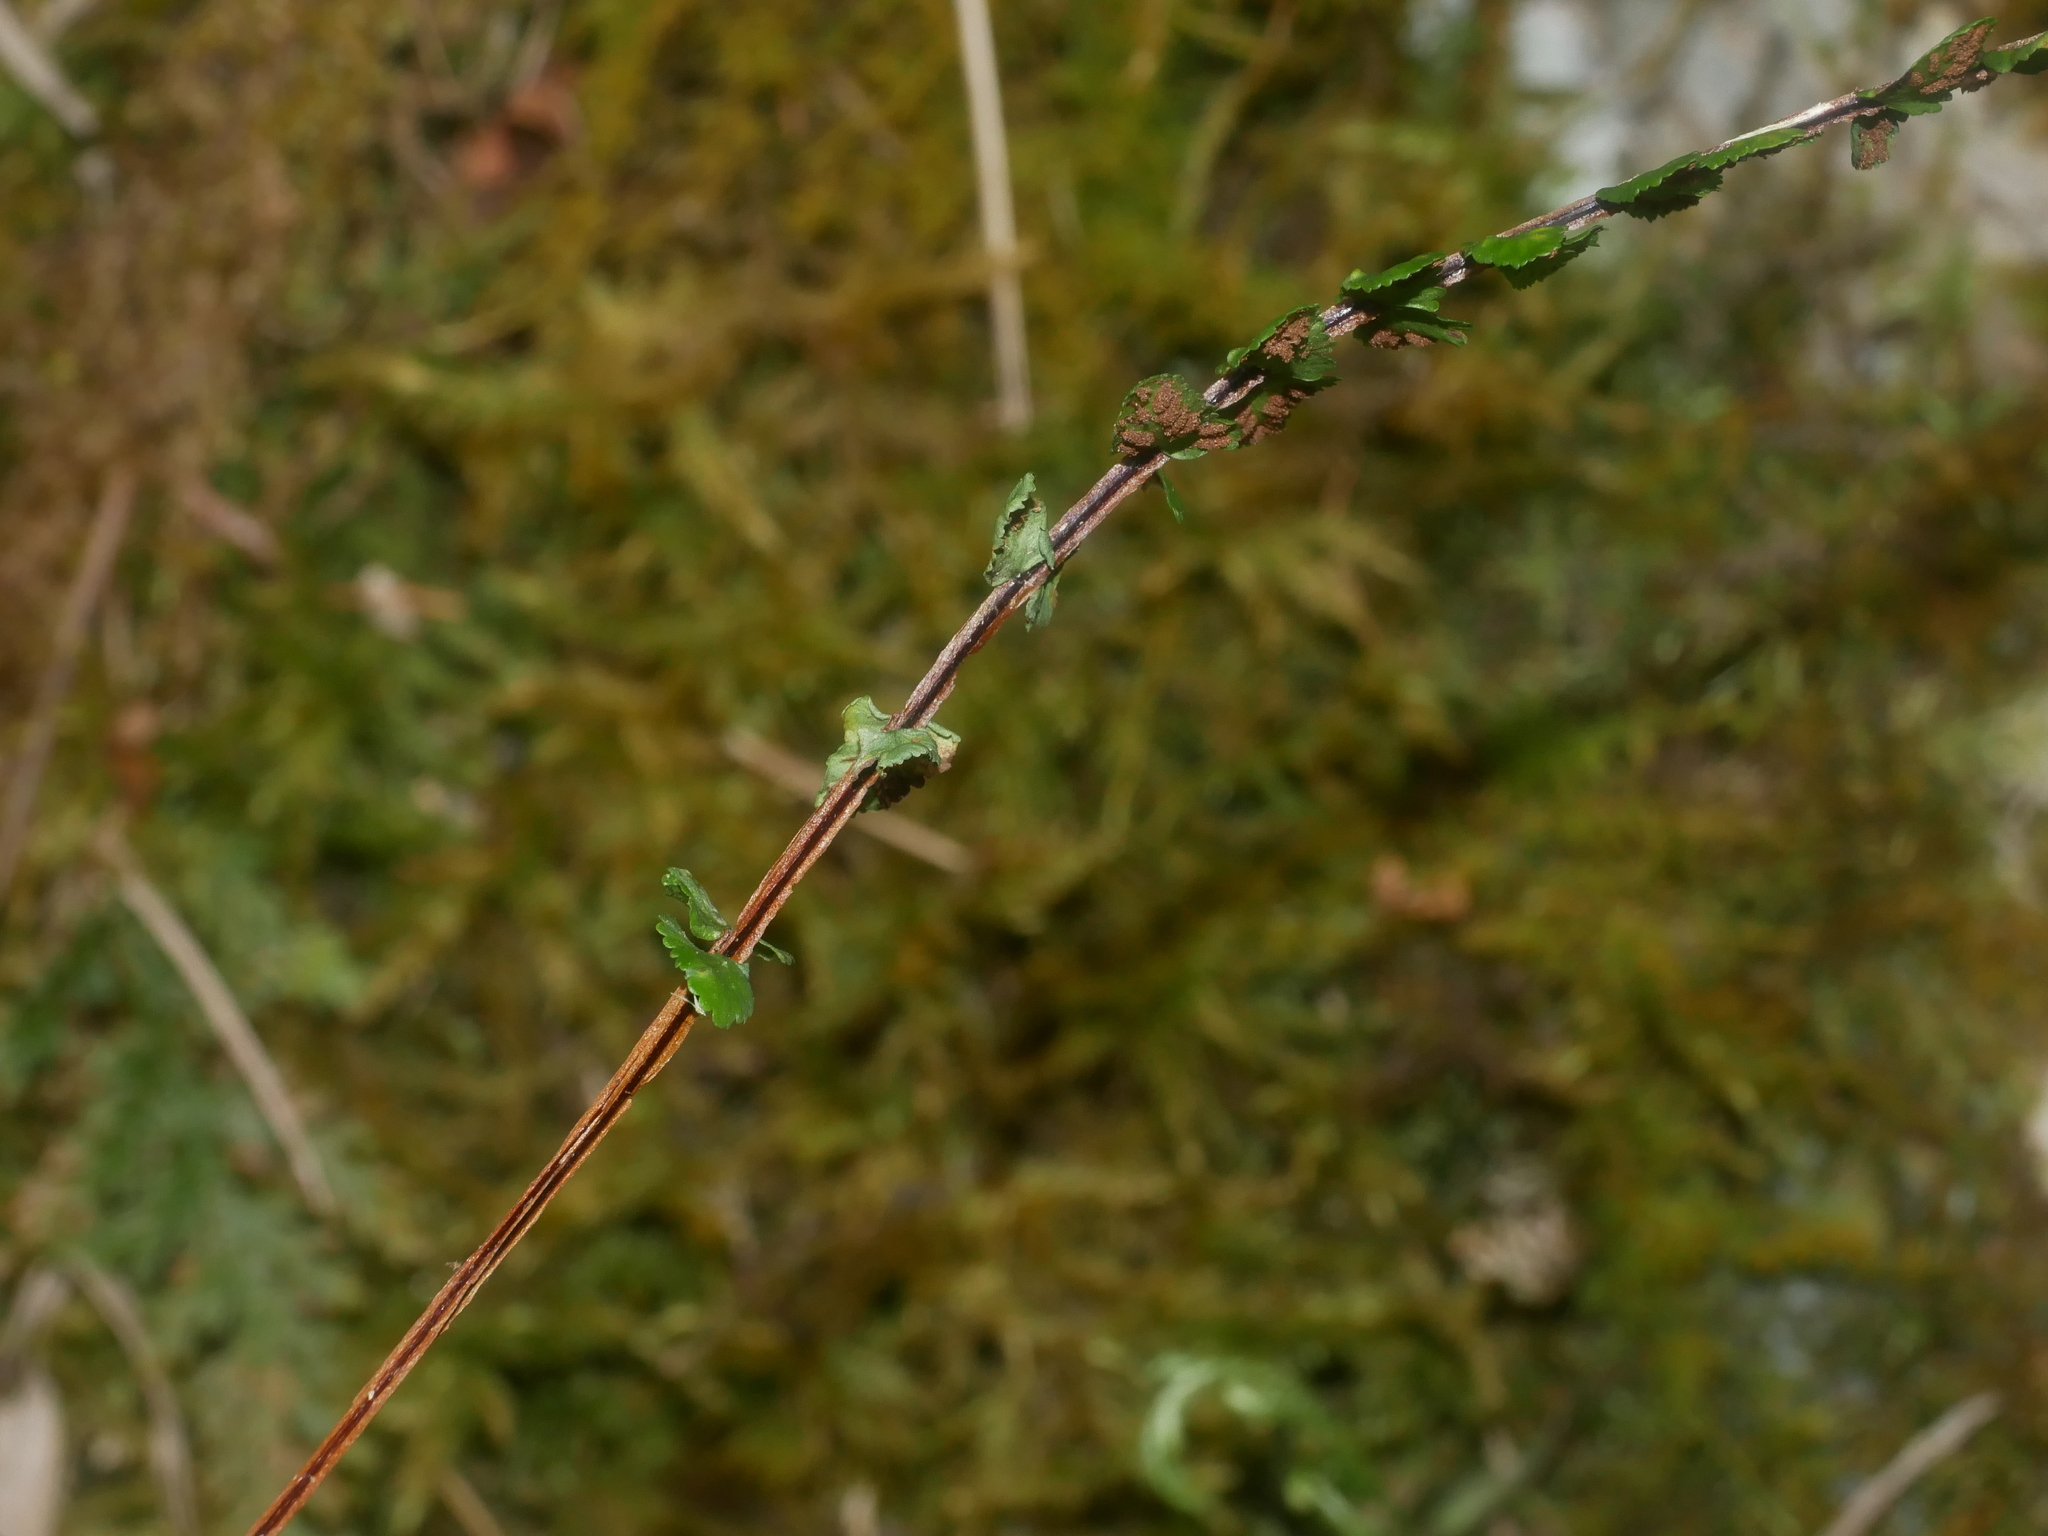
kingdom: Plantae
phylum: Tracheophyta
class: Polypodiopsida
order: Polypodiales
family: Aspleniaceae
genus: Asplenium
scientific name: Asplenium tripteropus
